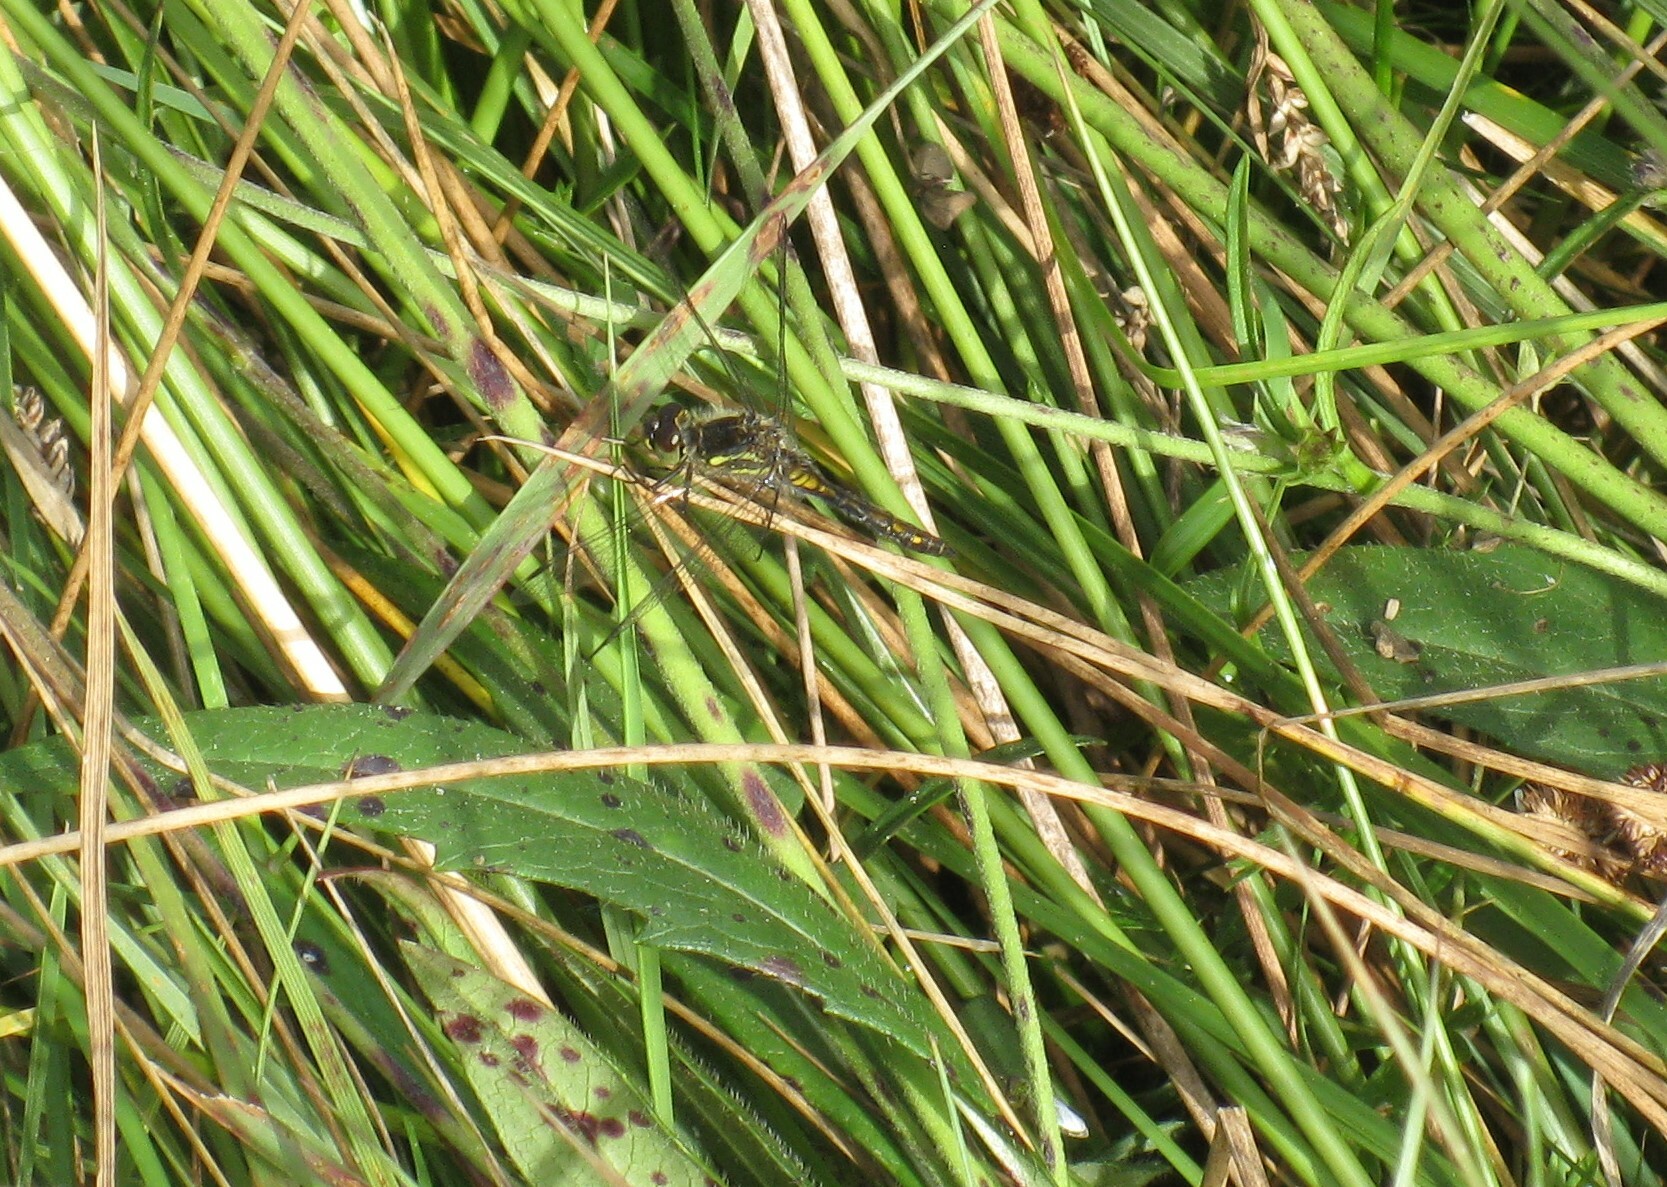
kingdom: Animalia
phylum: Arthropoda
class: Insecta
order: Odonata
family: Libellulidae
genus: Sympetrum
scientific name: Sympetrum danae
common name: Black darter
